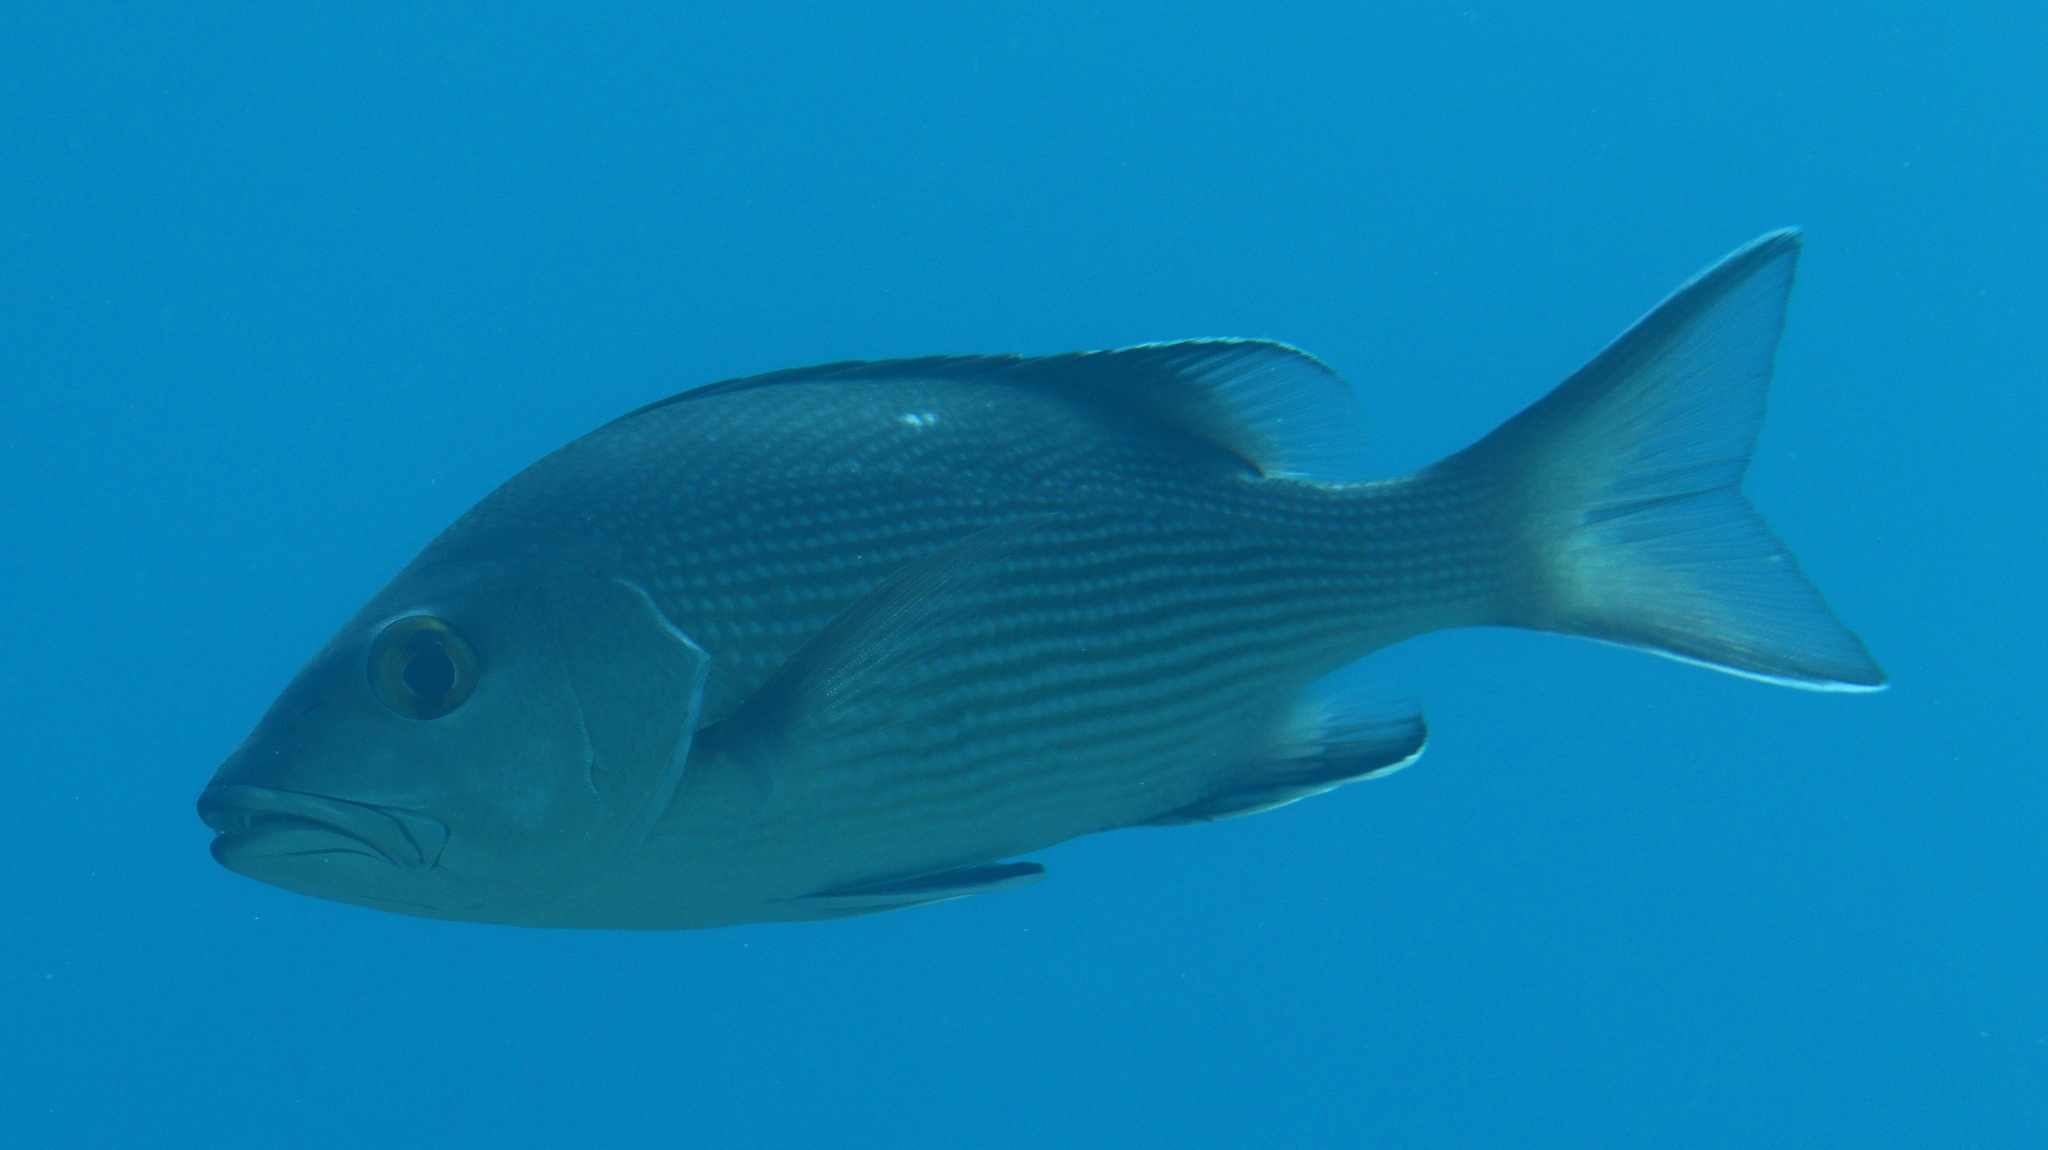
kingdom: Animalia
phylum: Chordata
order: Perciformes
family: Lutjanidae
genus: Lutjanus
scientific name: Lutjanus bohar
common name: Red bass
